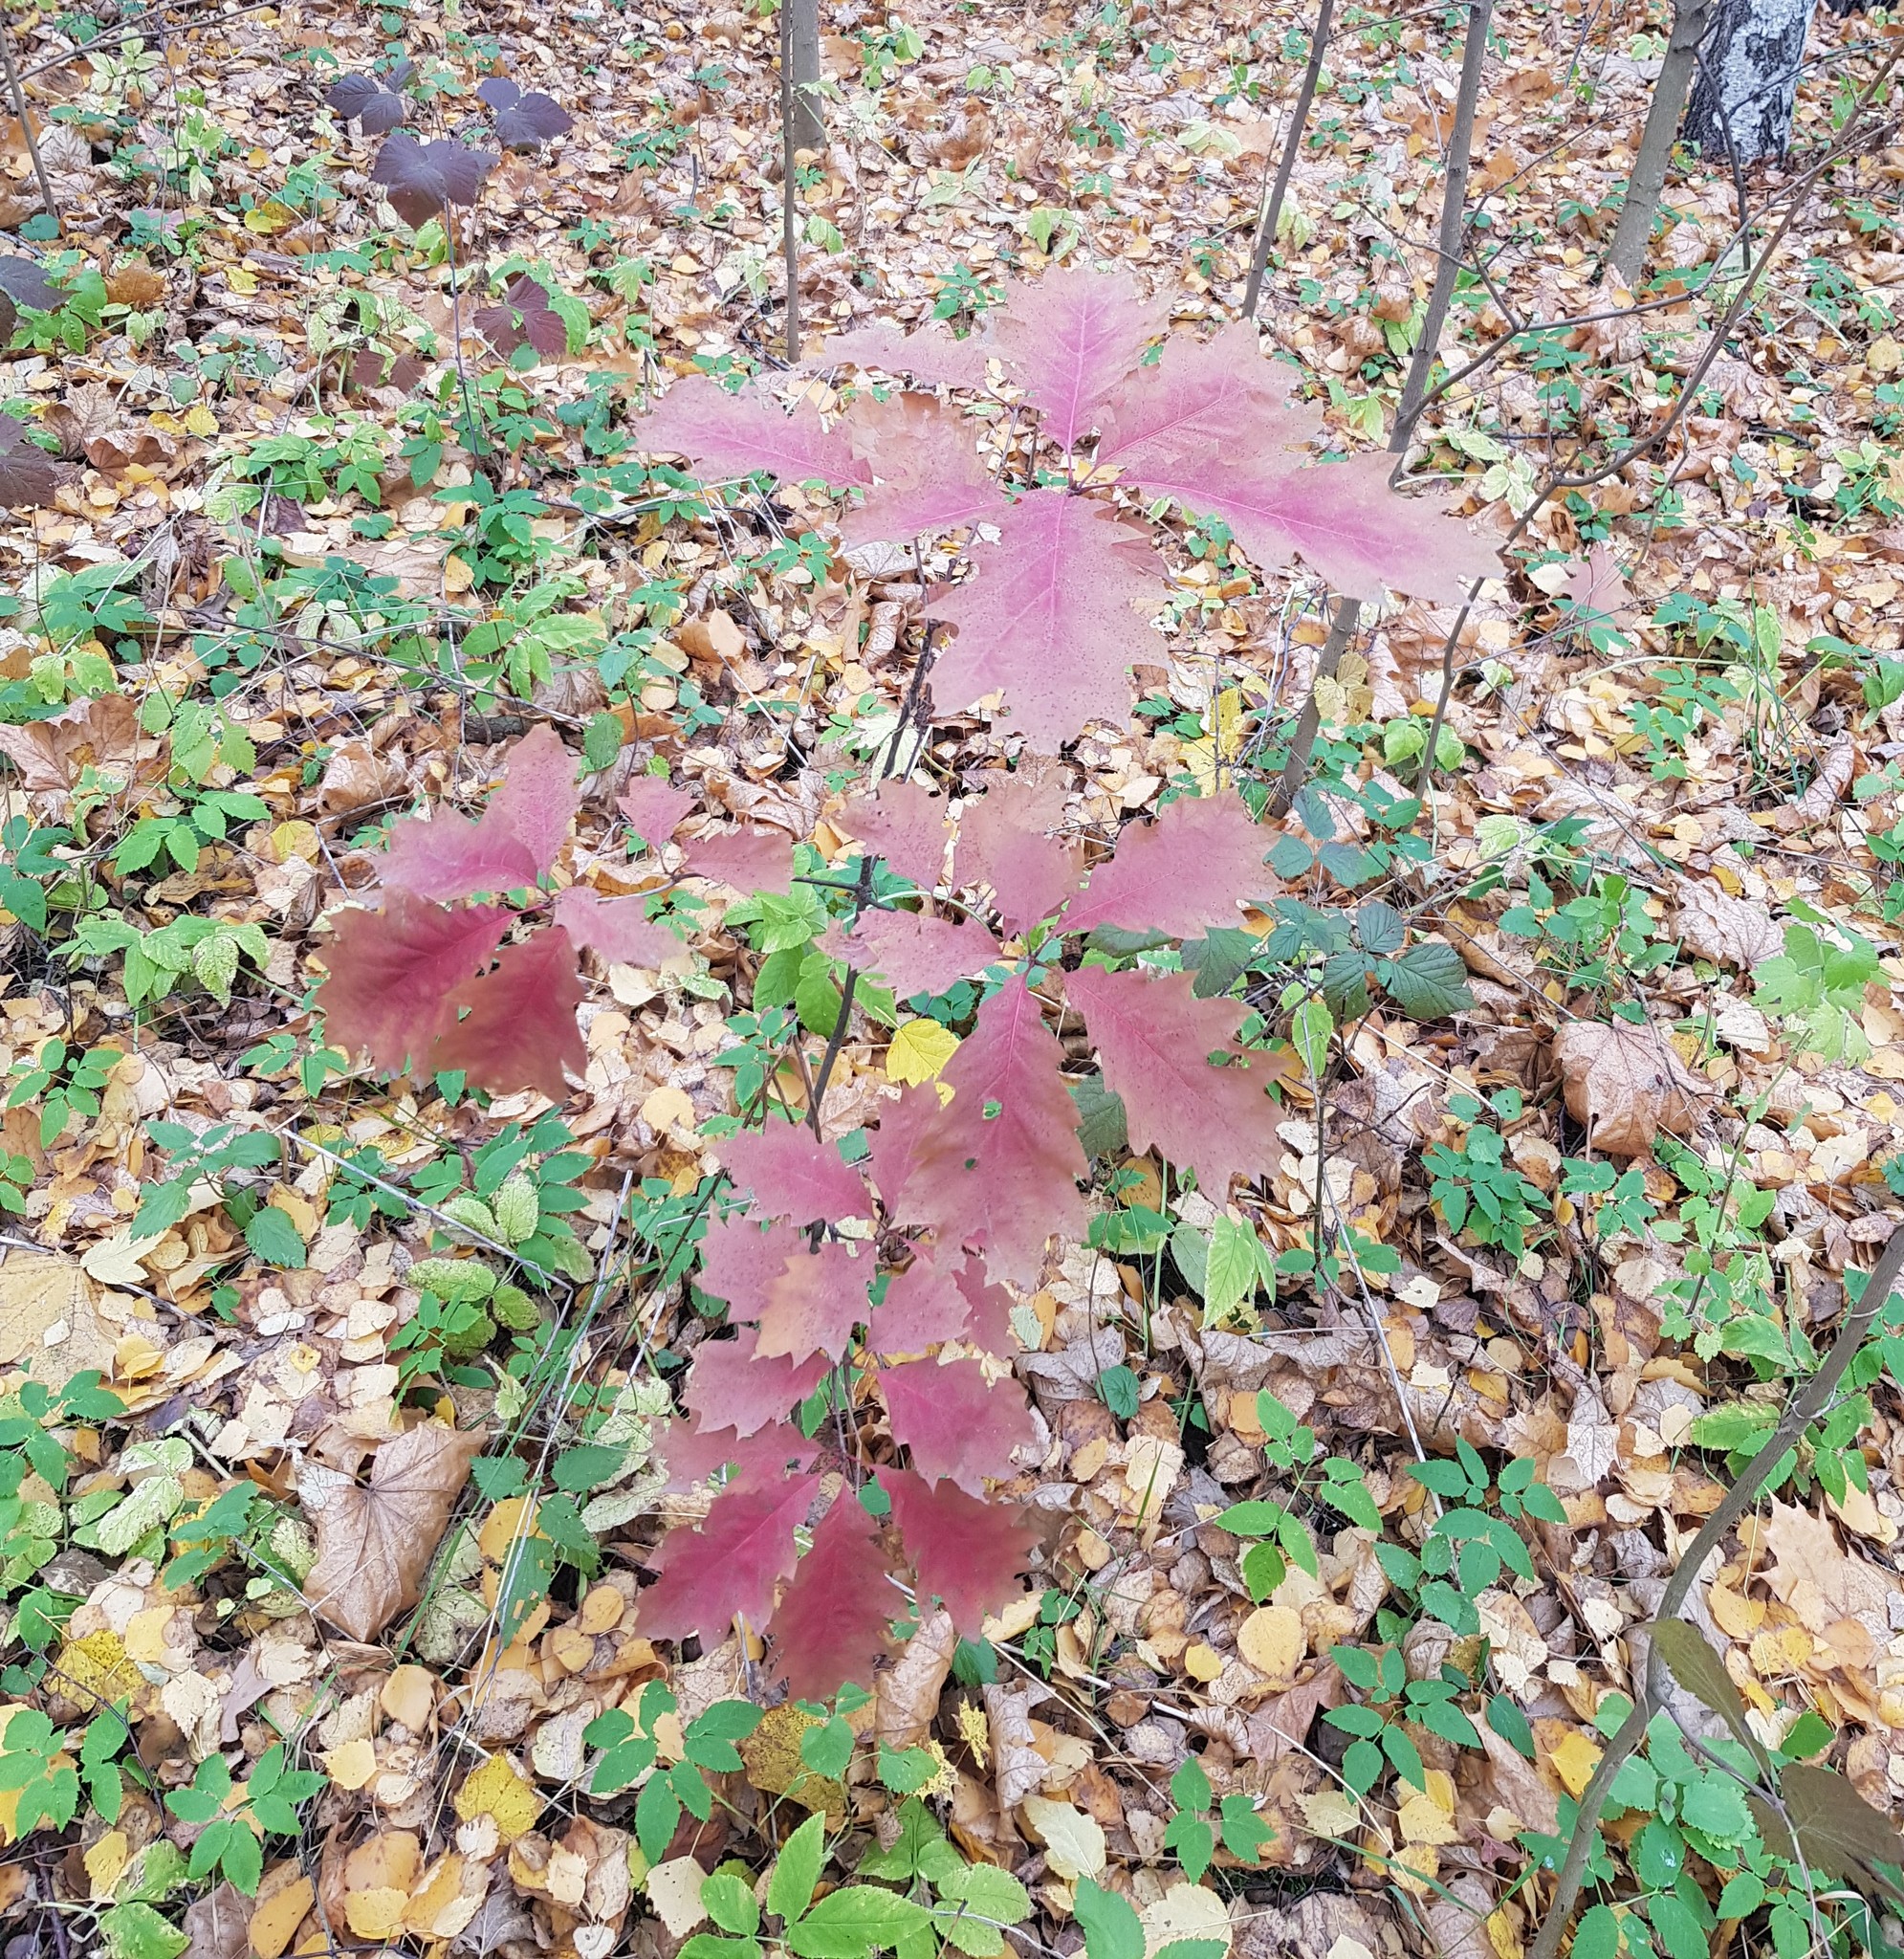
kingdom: Plantae
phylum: Tracheophyta
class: Magnoliopsida
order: Fagales
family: Fagaceae
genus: Quercus
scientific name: Quercus rubra
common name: Red oak
